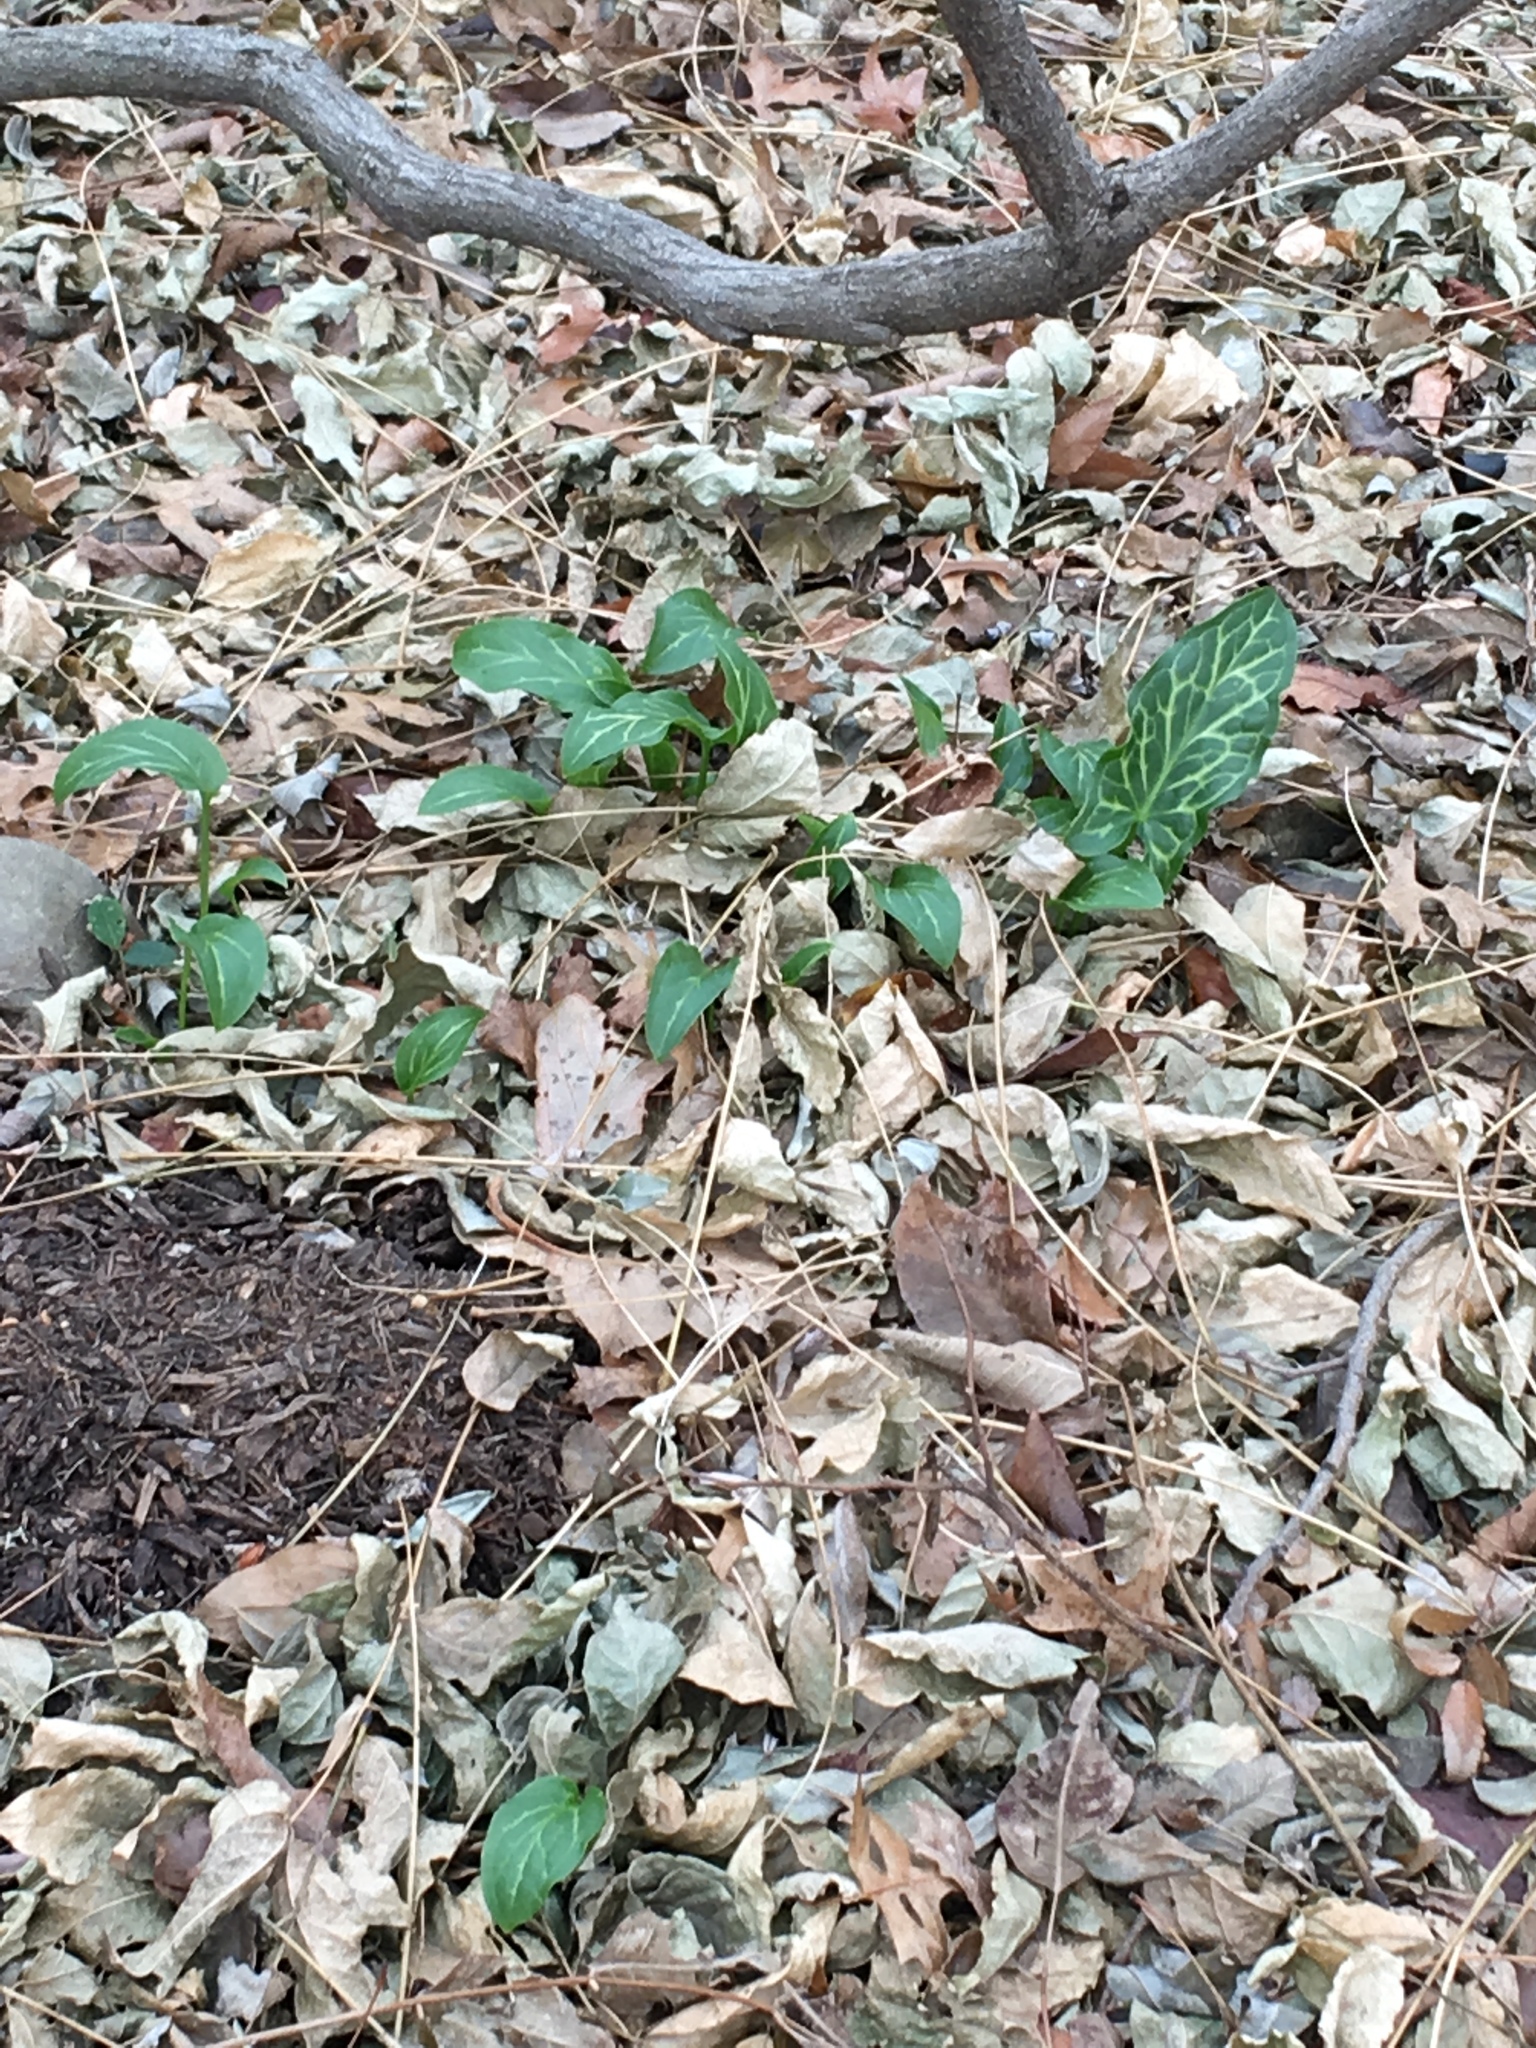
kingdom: Plantae
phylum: Tracheophyta
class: Liliopsida
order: Alismatales
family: Araceae
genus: Arum
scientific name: Arum italicum
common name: Italian lords-and-ladies
